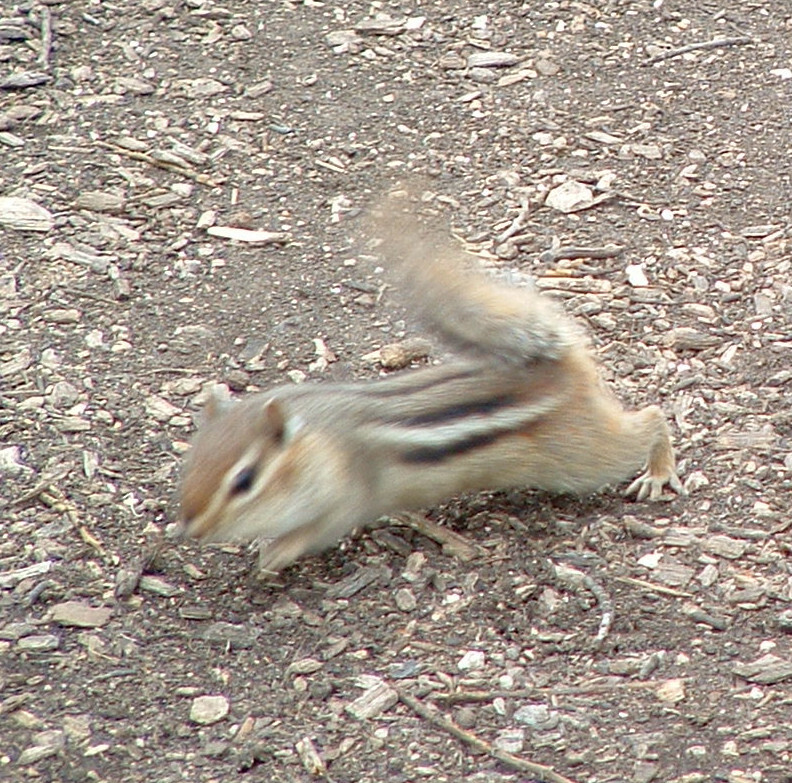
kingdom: Animalia
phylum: Chordata
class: Mammalia
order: Rodentia
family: Sciuridae
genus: Tamias
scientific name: Tamias striatus
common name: Eastern chipmunk
